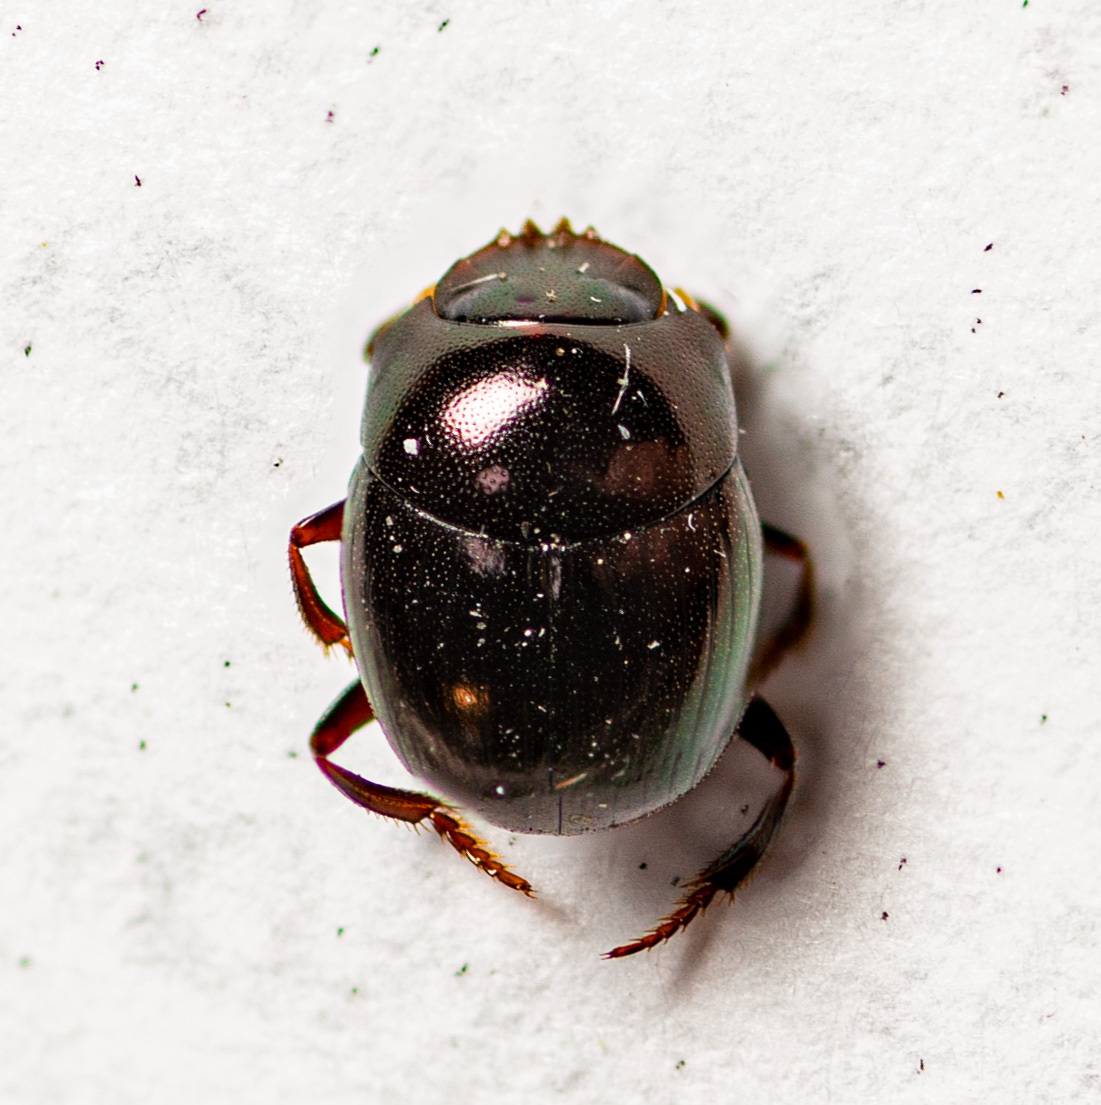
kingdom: Animalia
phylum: Arthropoda
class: Insecta
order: Coleoptera
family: Scarabaeidae
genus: Pseudocanthon
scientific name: Pseudocanthon perplexus
